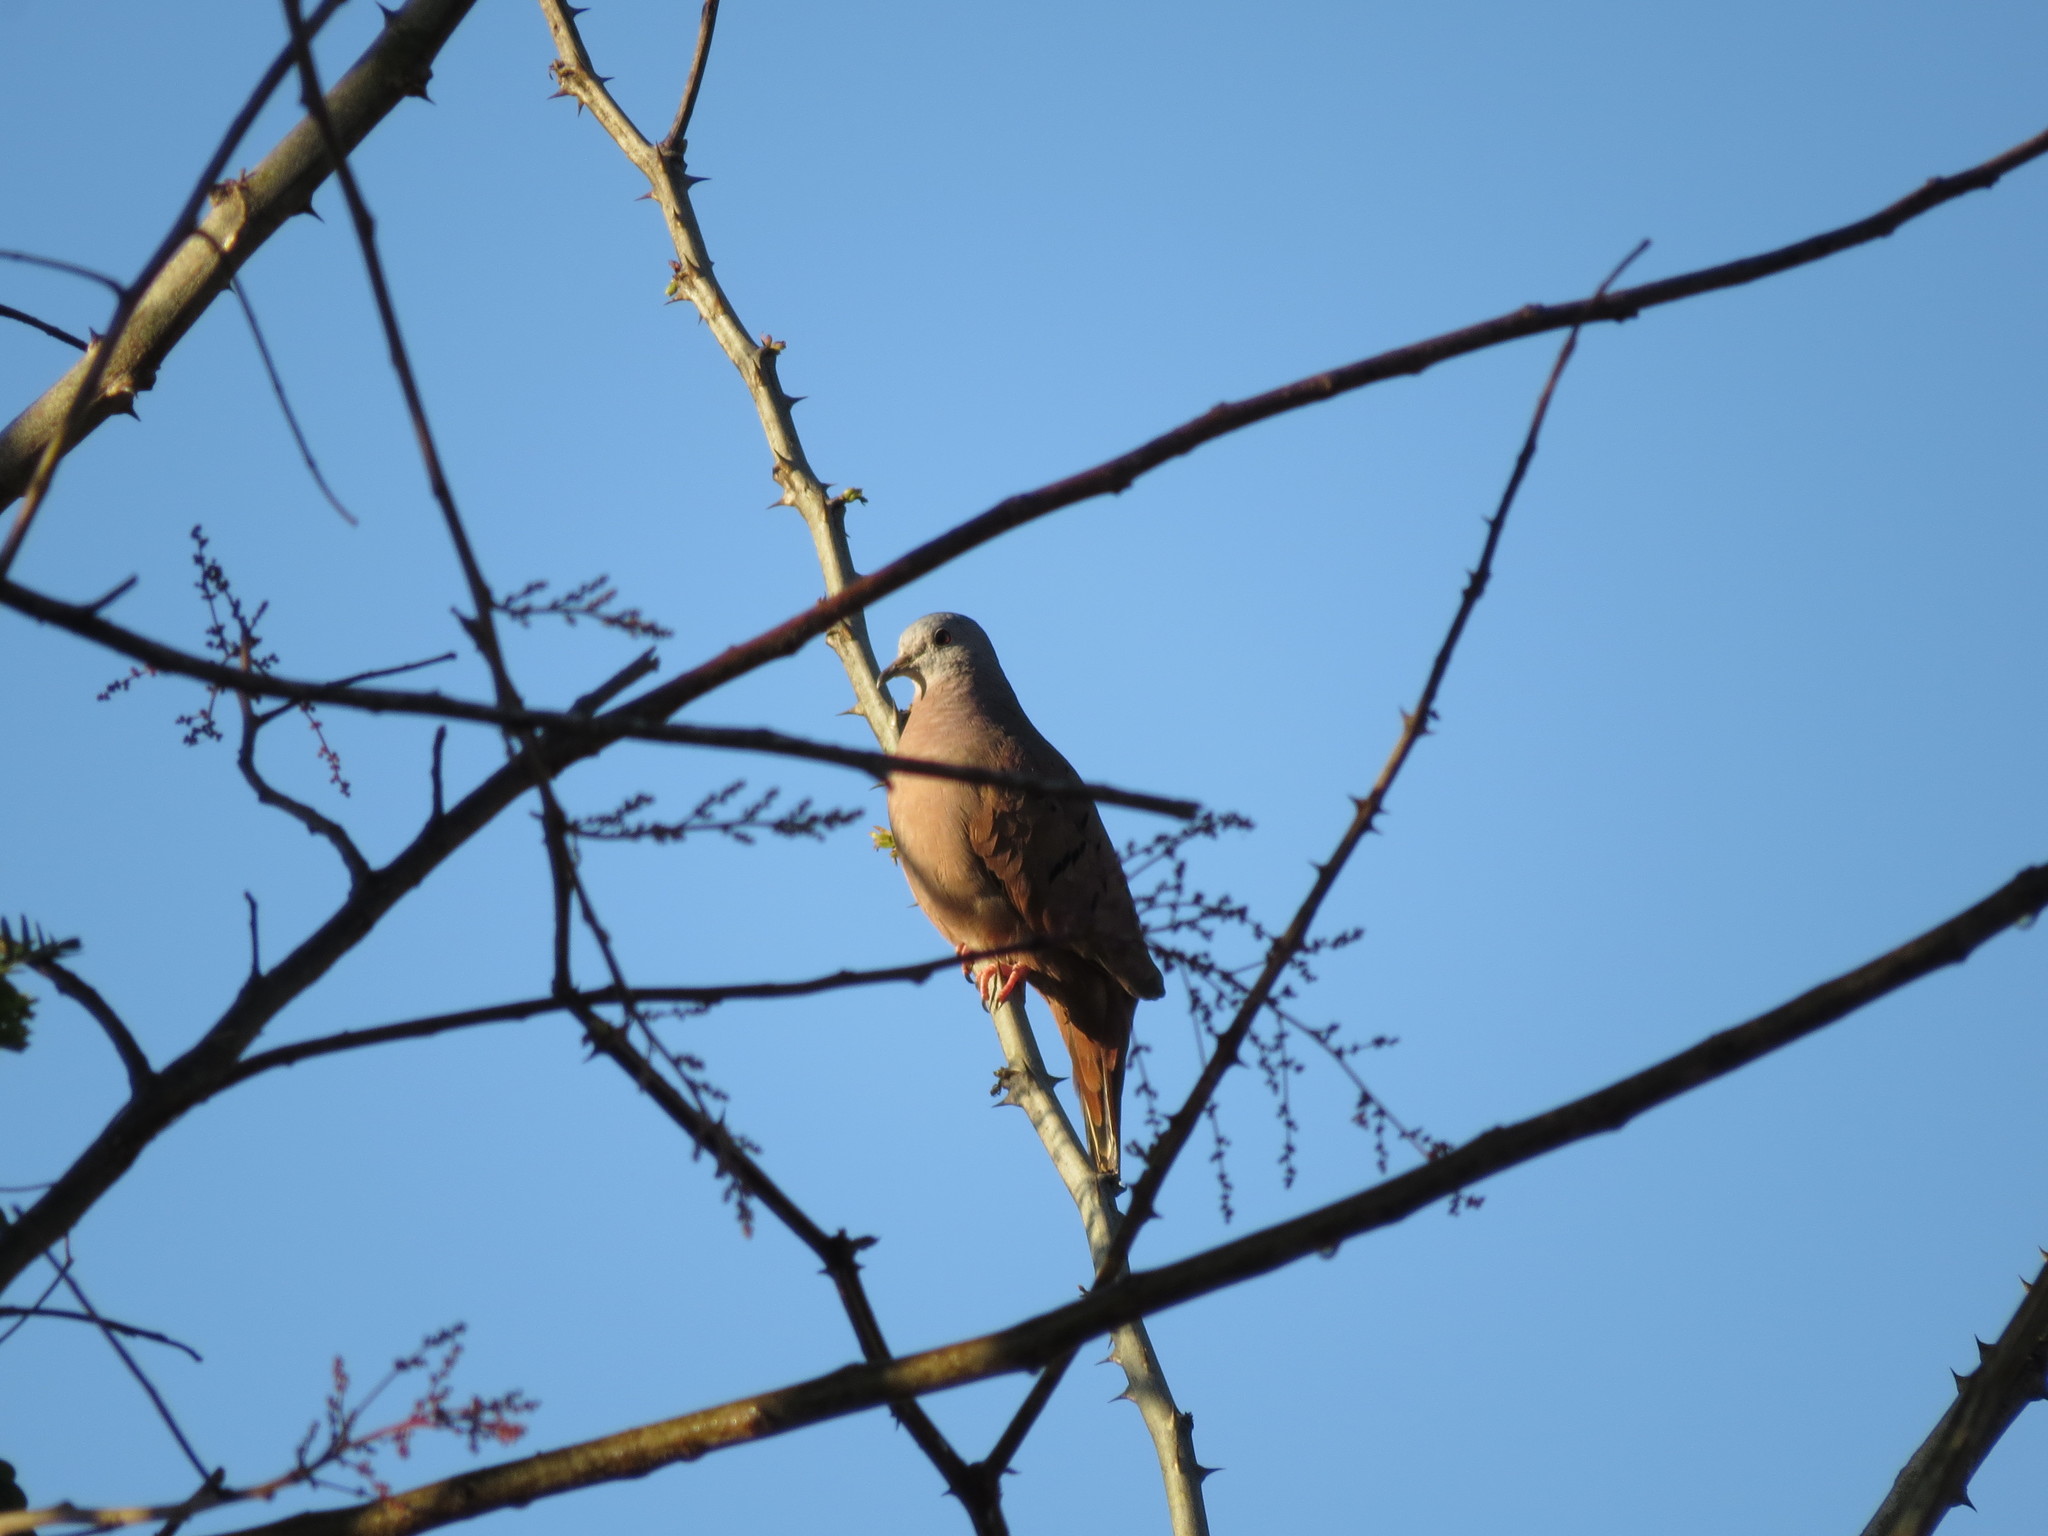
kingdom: Animalia
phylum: Chordata
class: Aves
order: Columbiformes
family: Columbidae
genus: Columbina
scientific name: Columbina talpacoti
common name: Ruddy ground dove
